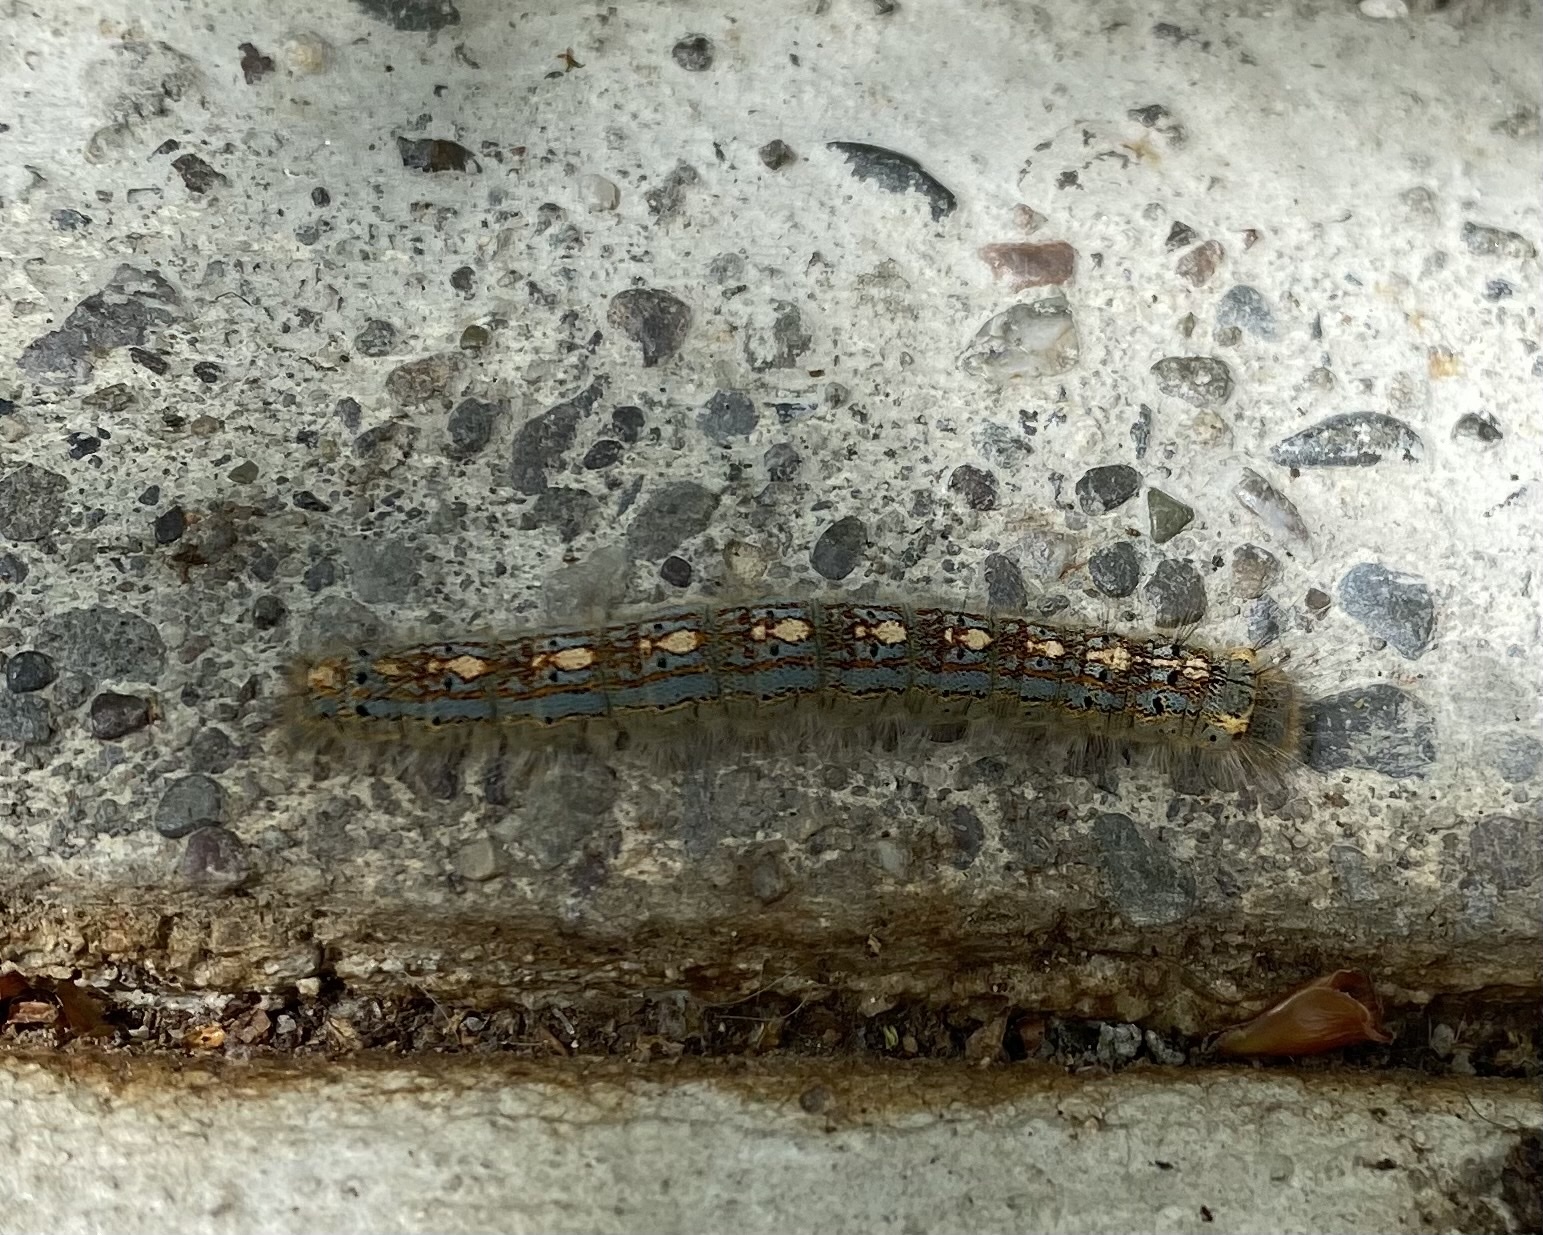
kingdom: Animalia
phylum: Arthropoda
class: Insecta
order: Lepidoptera
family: Lasiocampidae
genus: Malacosoma
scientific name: Malacosoma disstria
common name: Forest tent caterpillar
